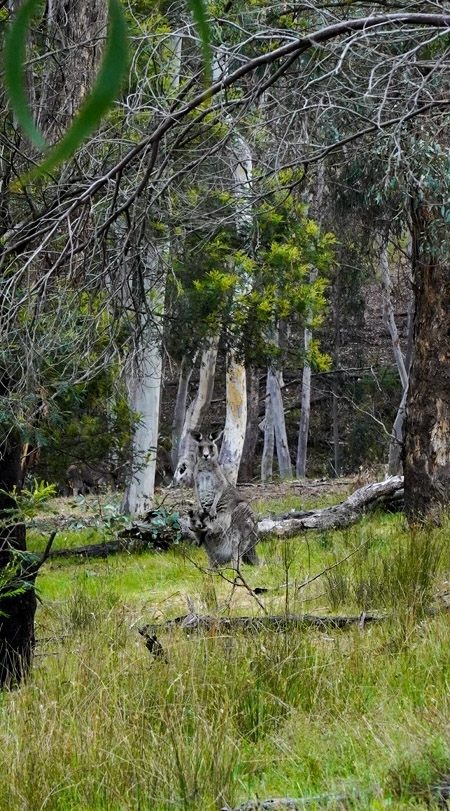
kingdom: Animalia
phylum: Chordata
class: Mammalia
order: Diprotodontia
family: Macropodidae
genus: Macropus
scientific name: Macropus giganteus
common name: Eastern grey kangaroo
